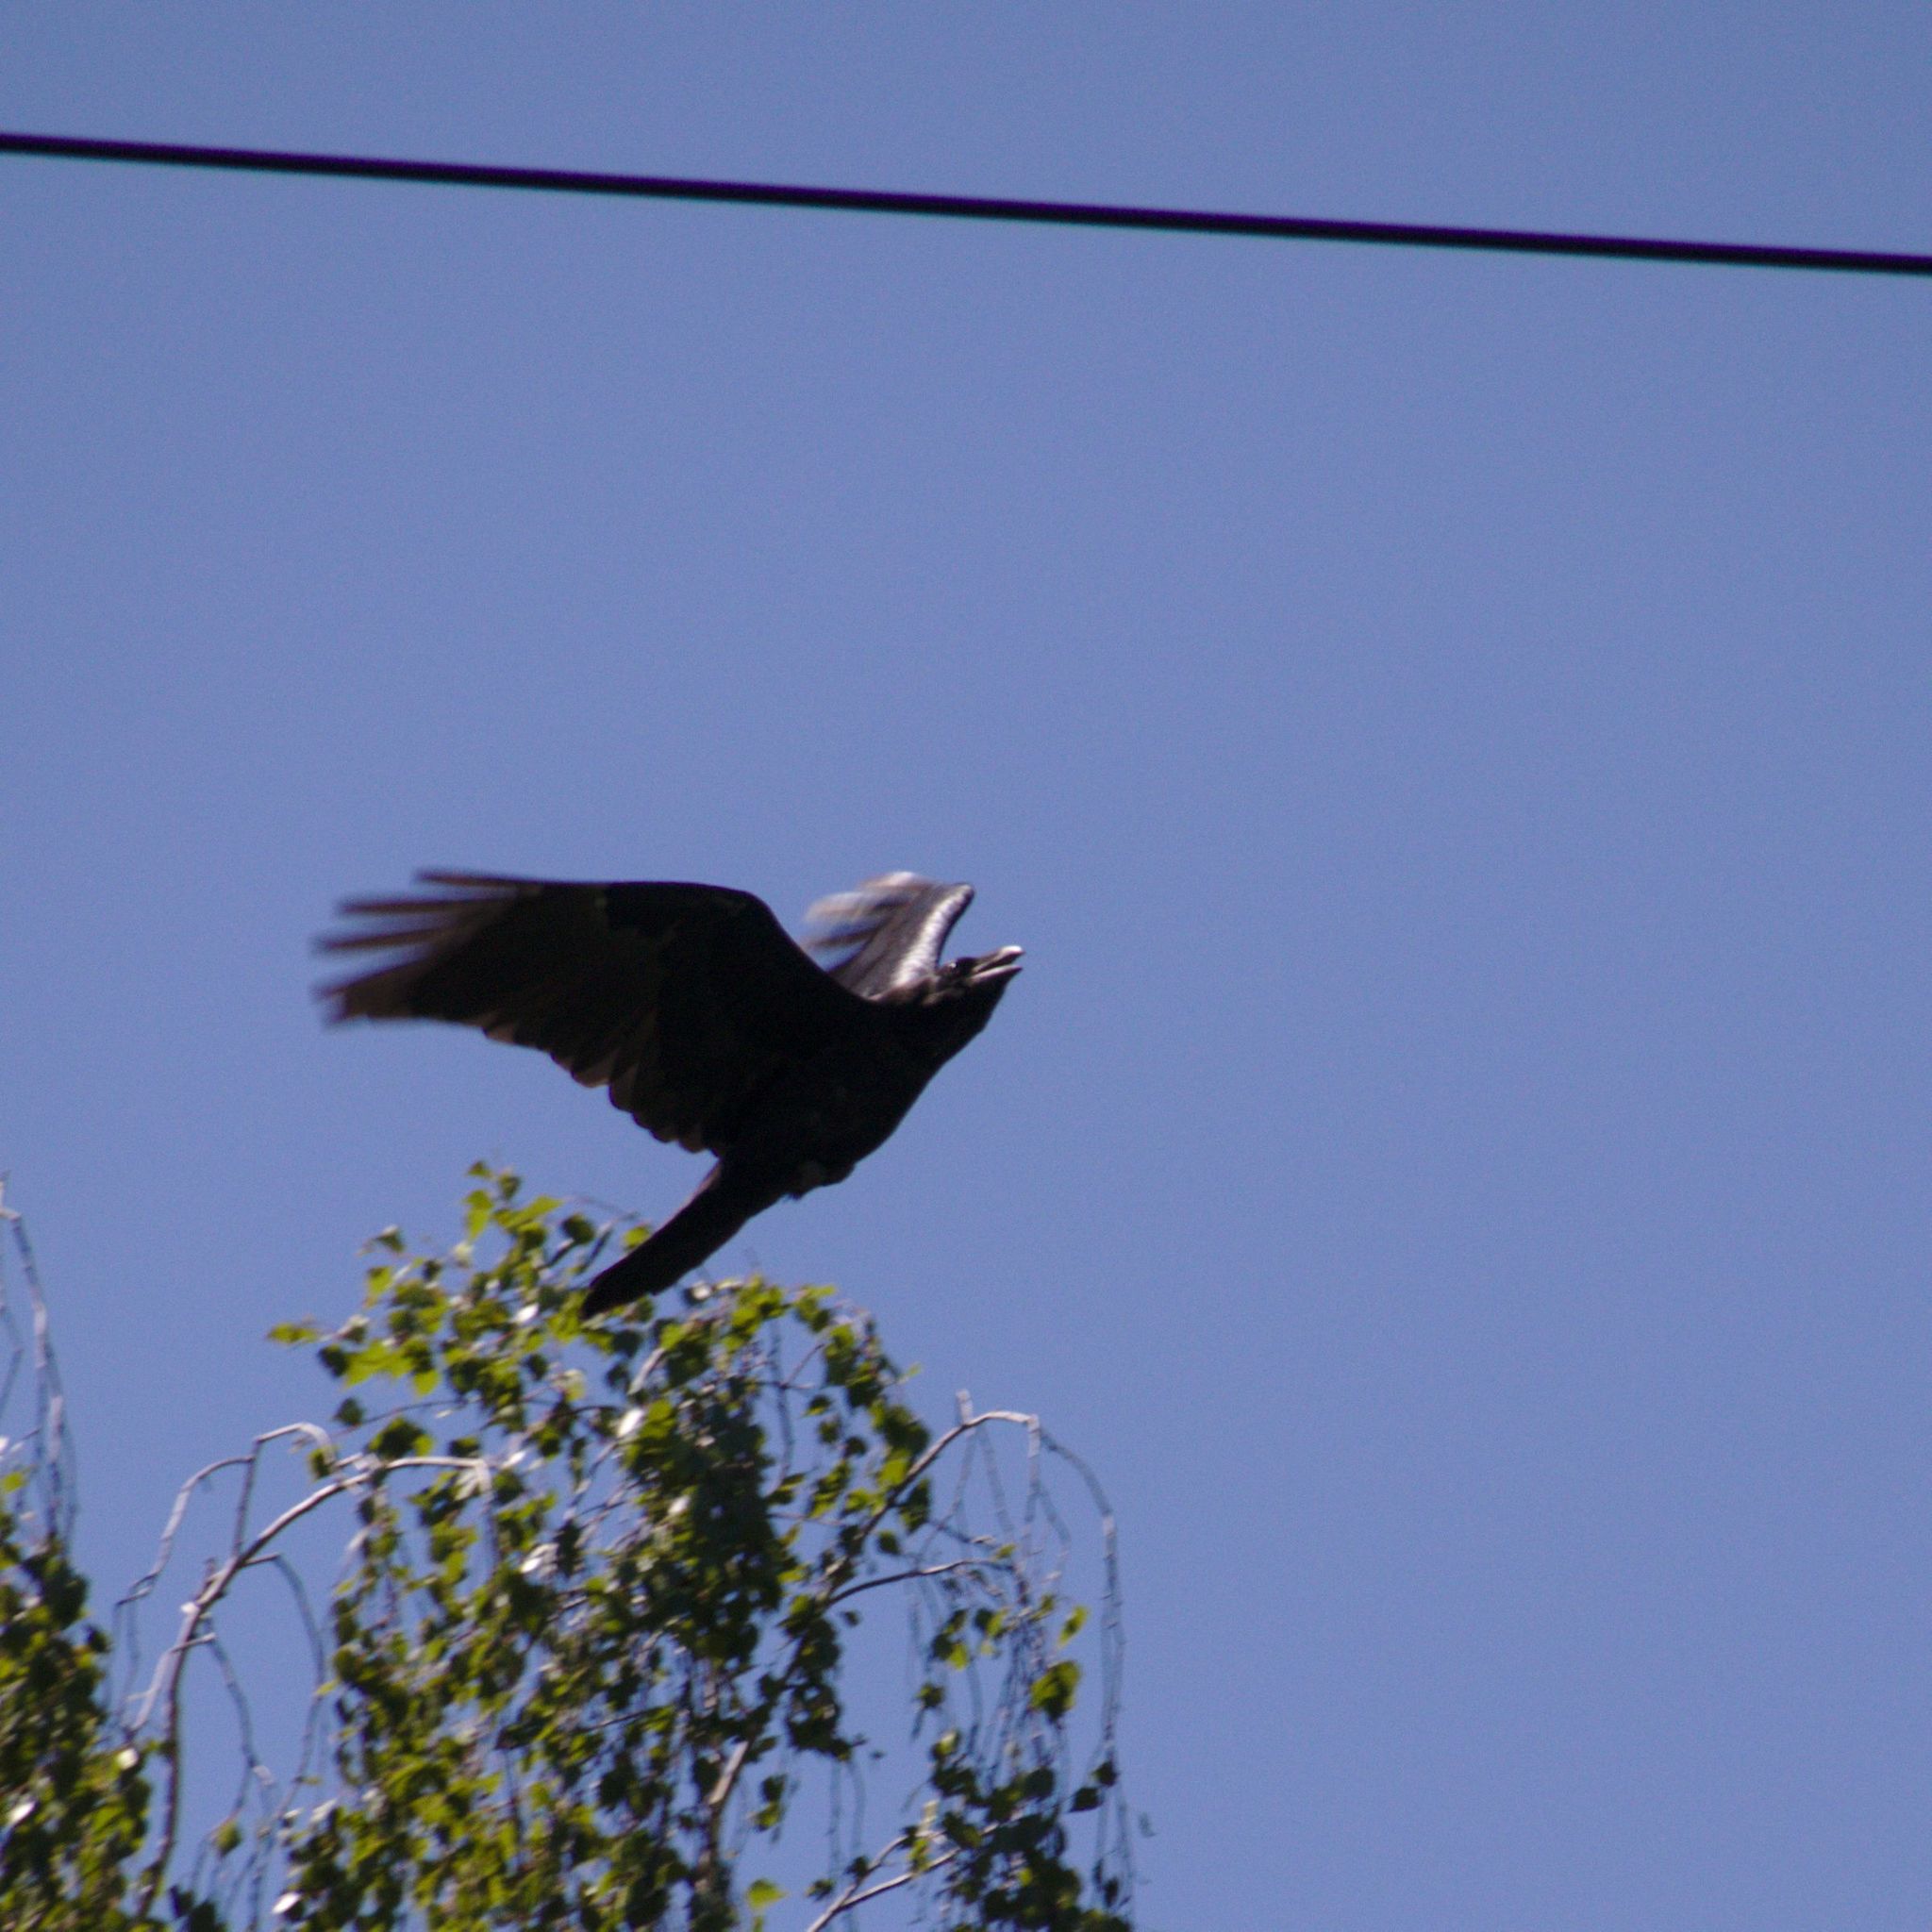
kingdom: Animalia
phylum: Chordata
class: Aves
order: Passeriformes
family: Corvidae
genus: Corvus
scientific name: Corvus corax
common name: Common raven
